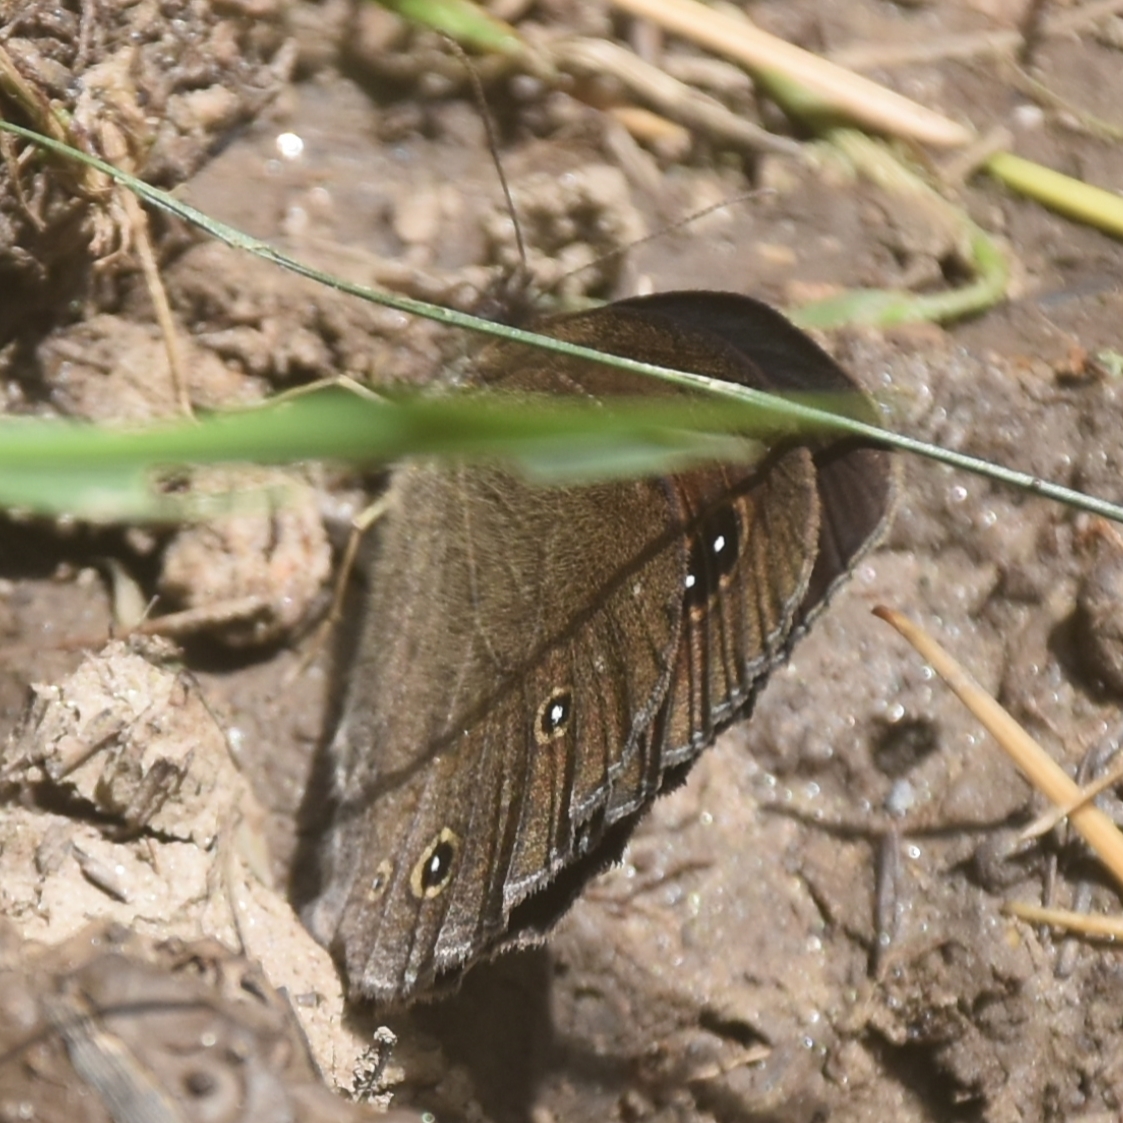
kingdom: Animalia
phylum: Arthropoda
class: Insecta
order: Lepidoptera
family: Nymphalidae
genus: Callerebia
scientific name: Callerebia nirmala
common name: Common argus
